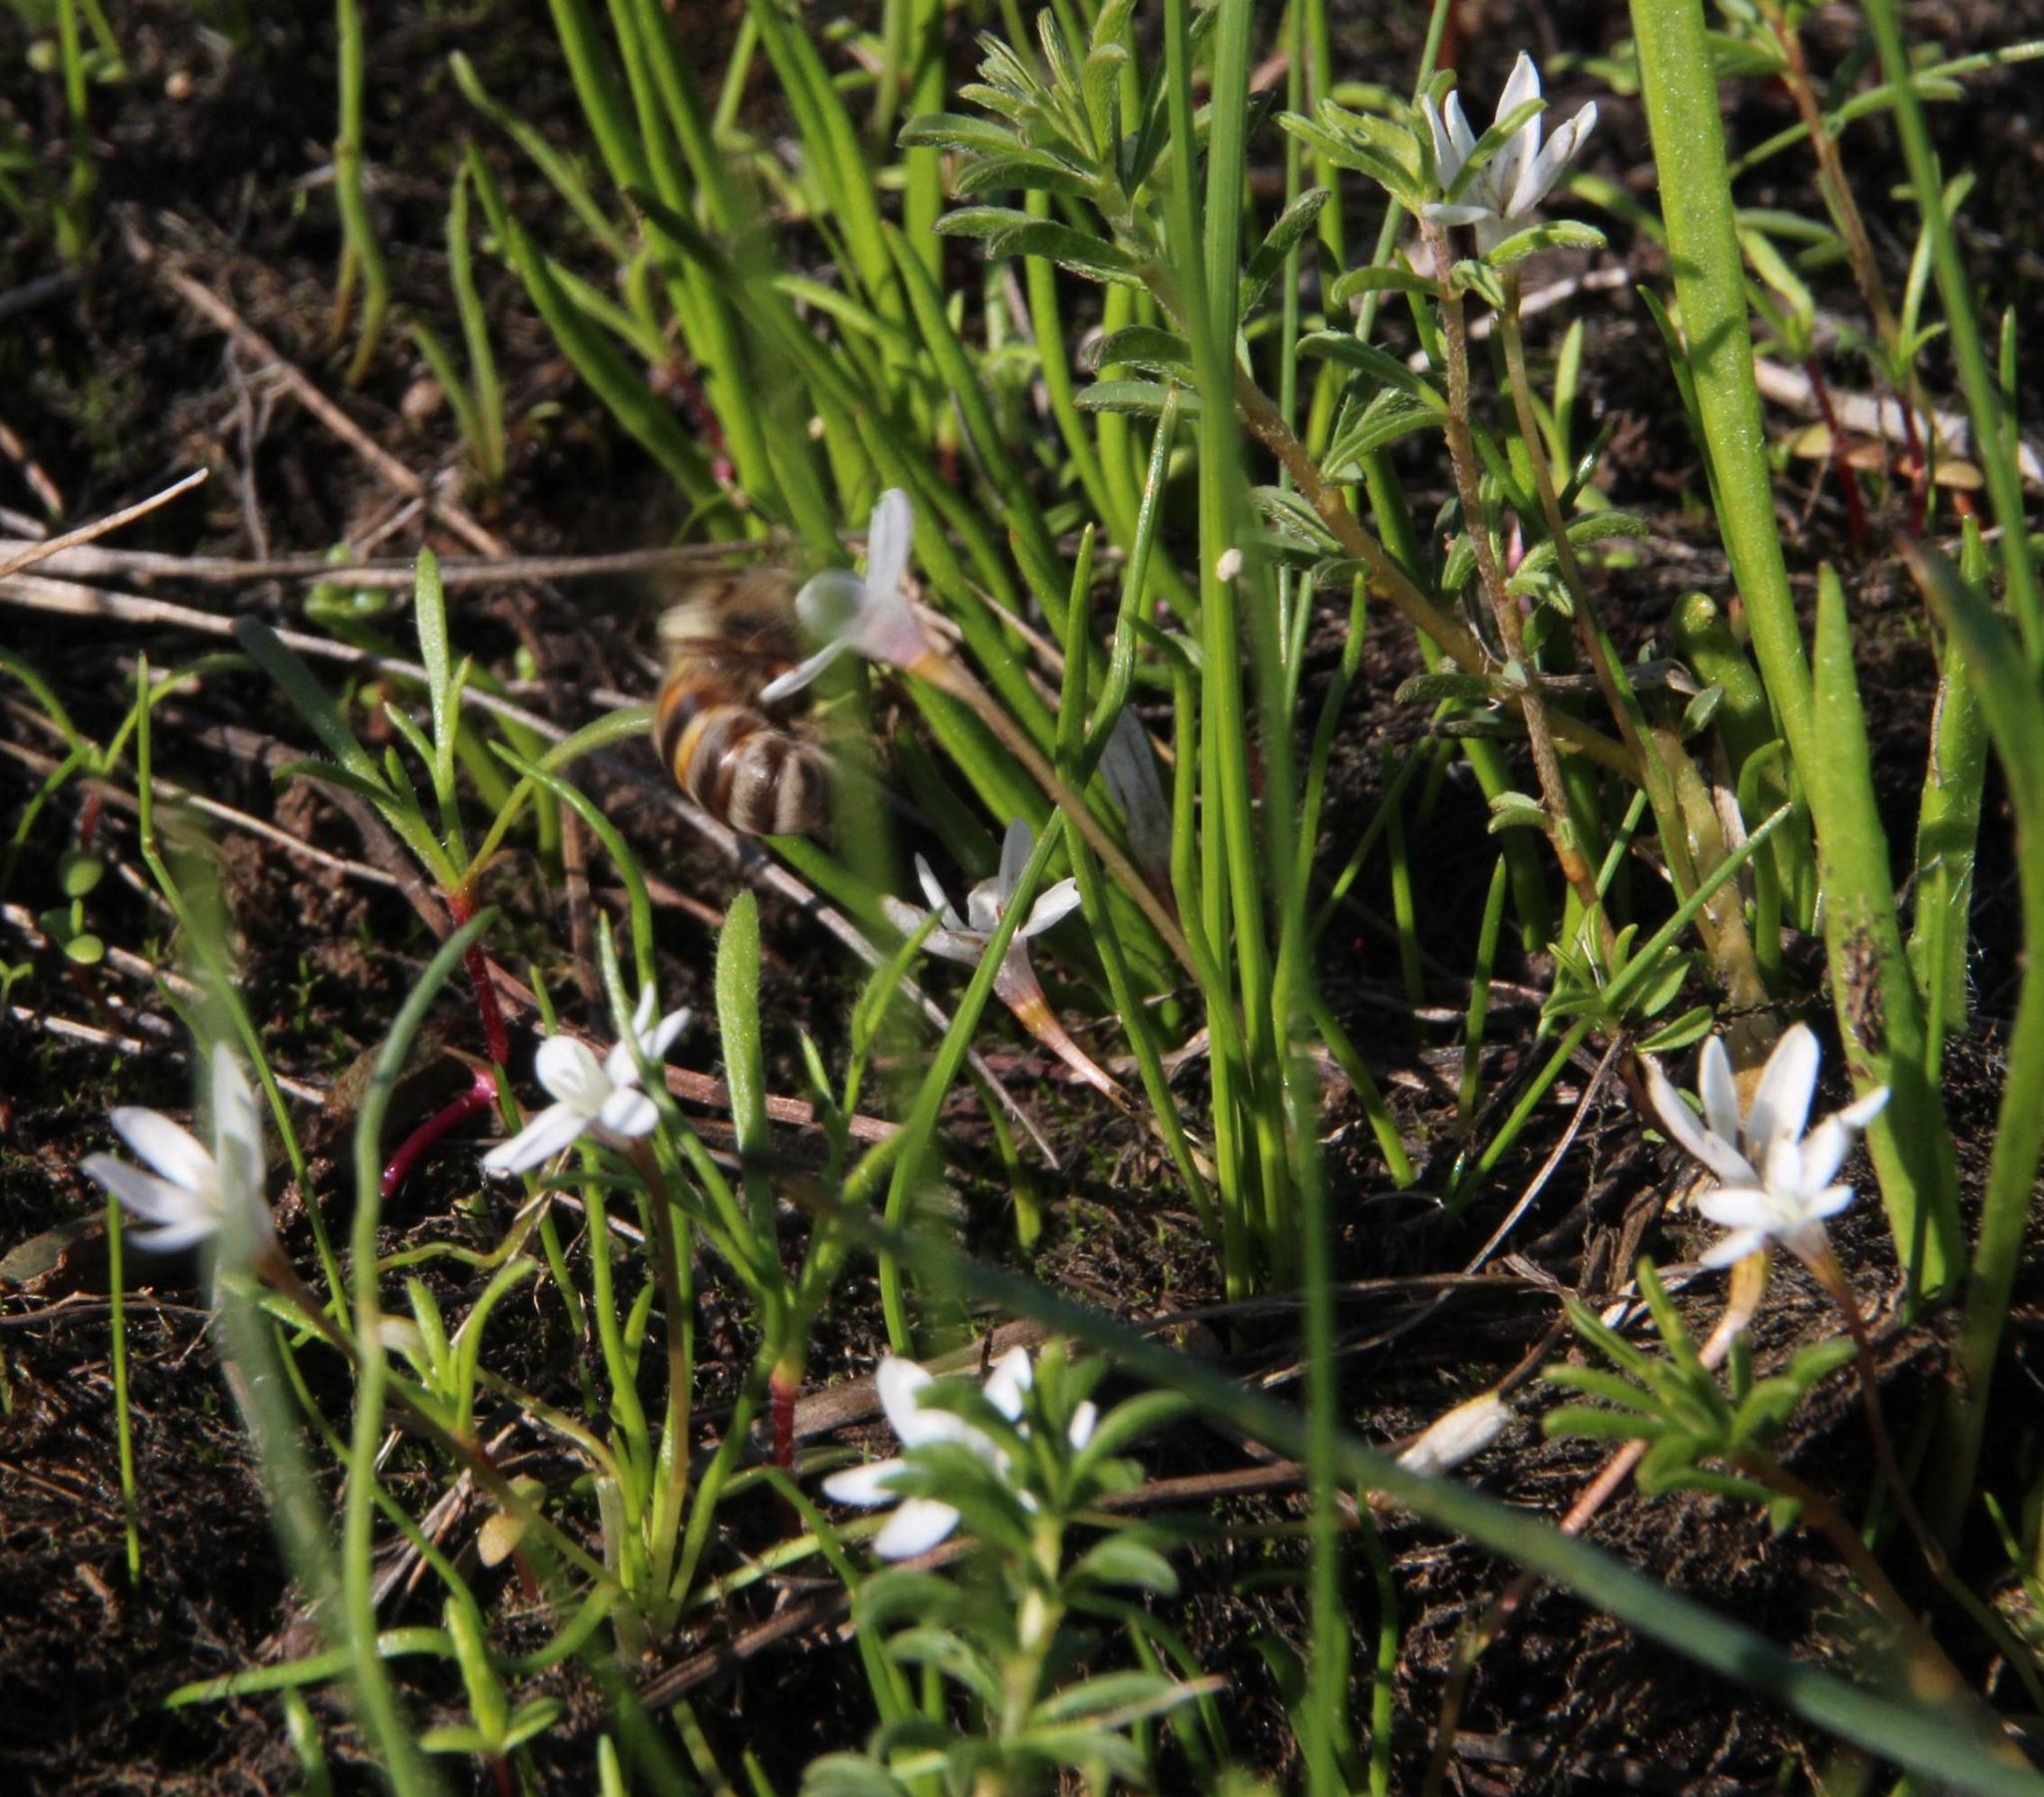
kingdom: Plantae
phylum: Tracheophyta
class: Liliopsida
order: Asparagales
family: Hypoxidaceae
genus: Pauridia
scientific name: Pauridia minuta
